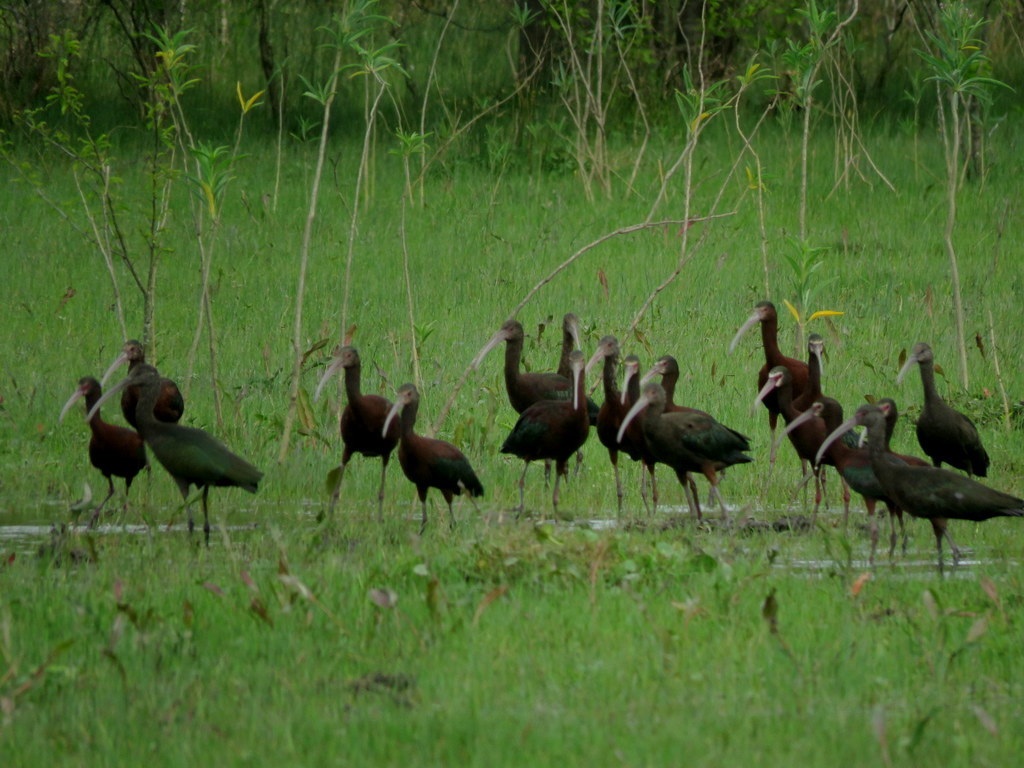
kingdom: Animalia
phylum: Chordata
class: Aves
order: Pelecaniformes
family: Threskiornithidae
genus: Plegadis
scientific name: Plegadis chihi
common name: White-faced ibis
